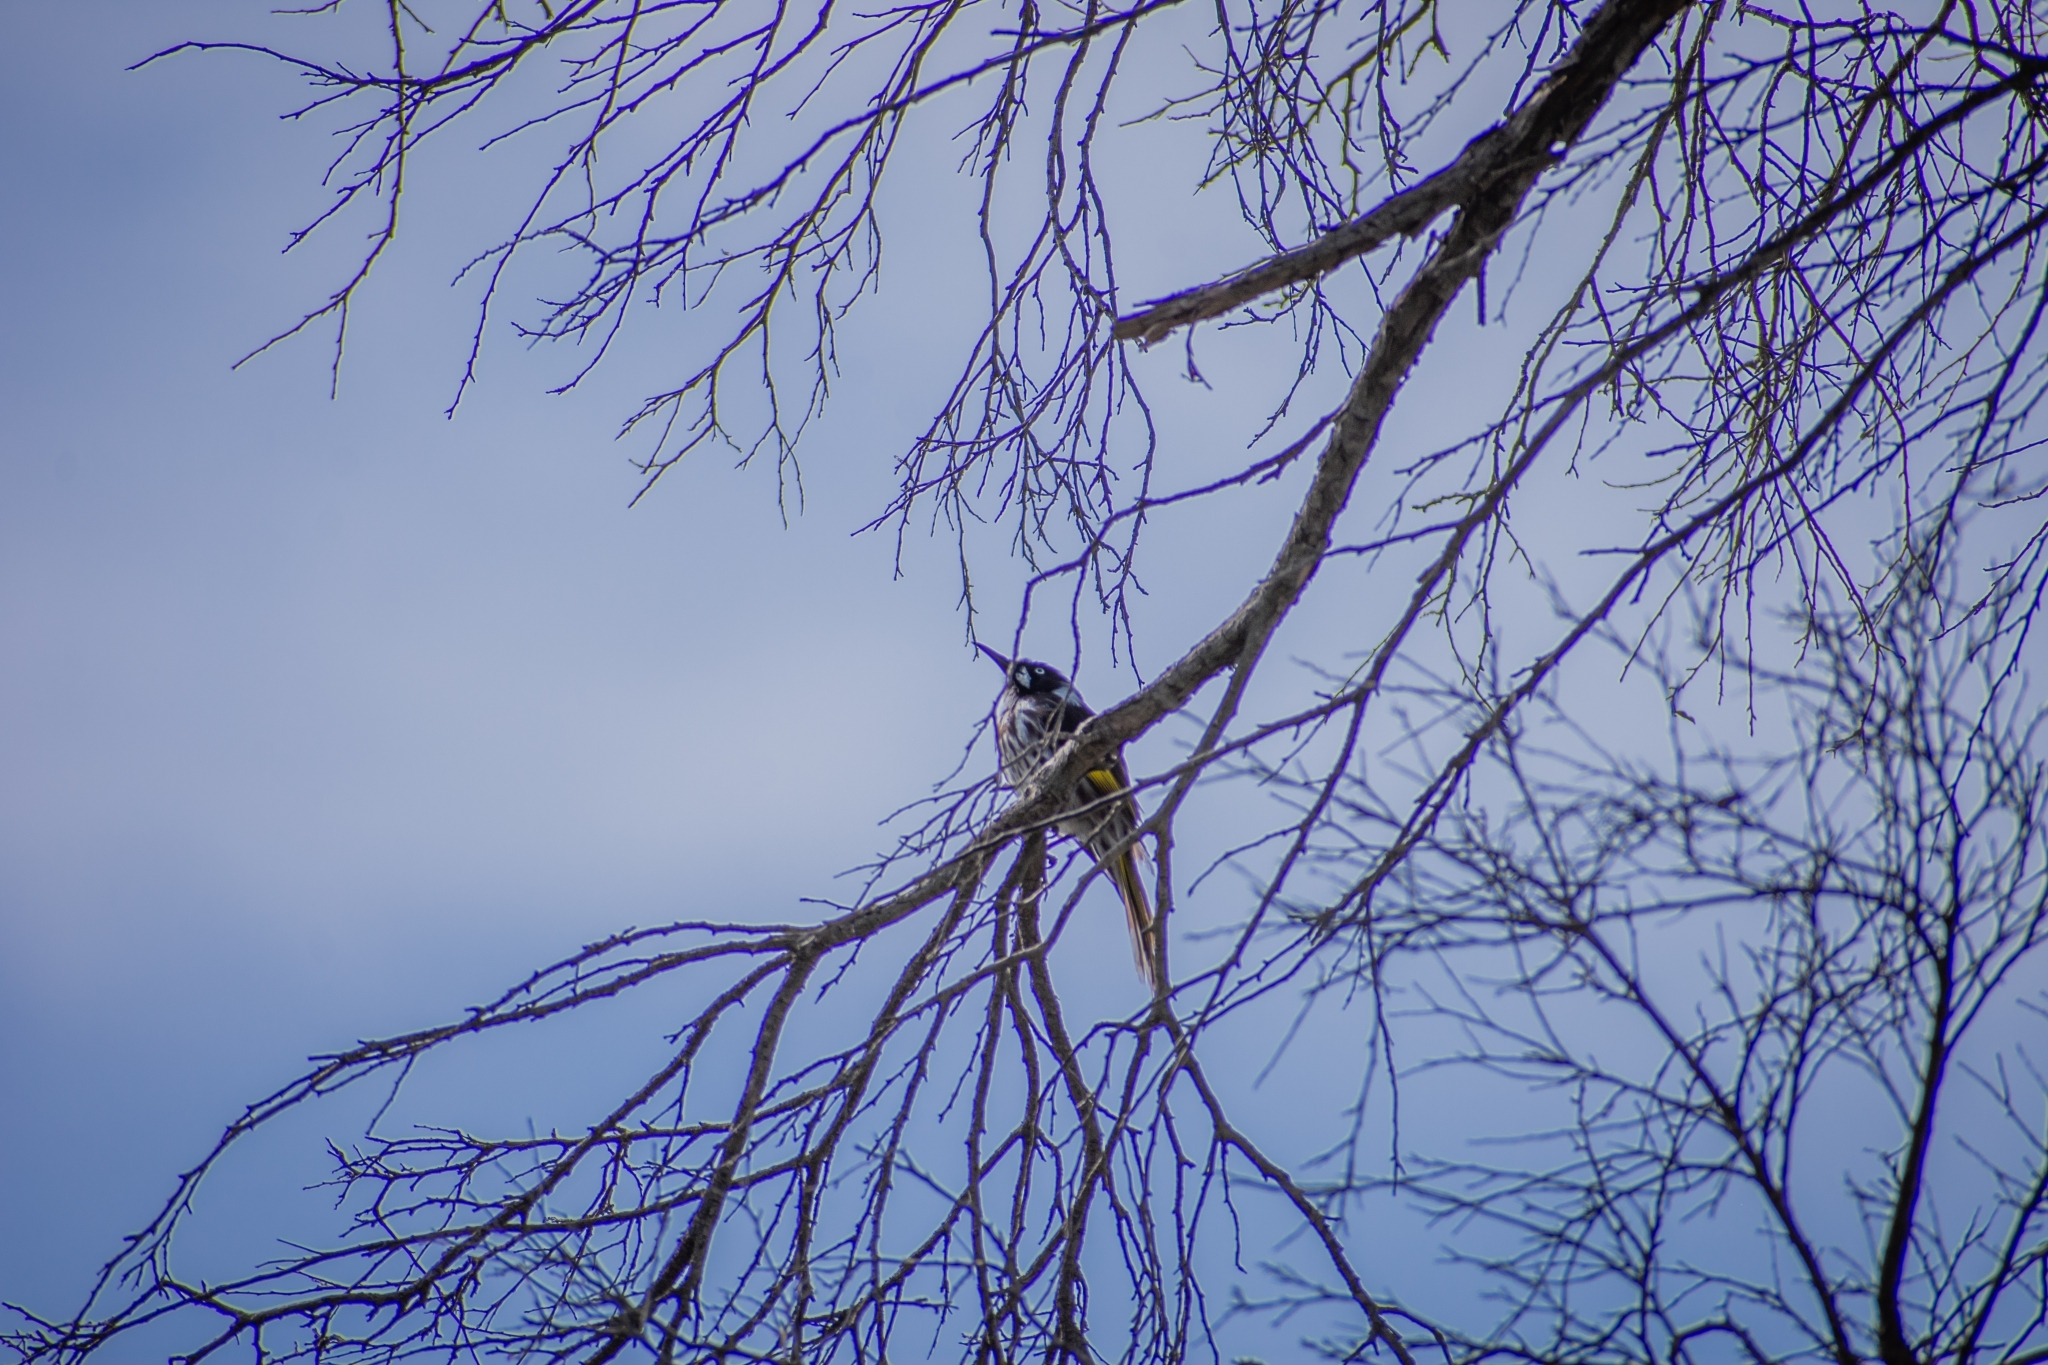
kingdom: Animalia
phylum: Chordata
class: Aves
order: Passeriformes
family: Meliphagidae
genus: Phylidonyris
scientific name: Phylidonyris novaehollandiae
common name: New holland honeyeater
